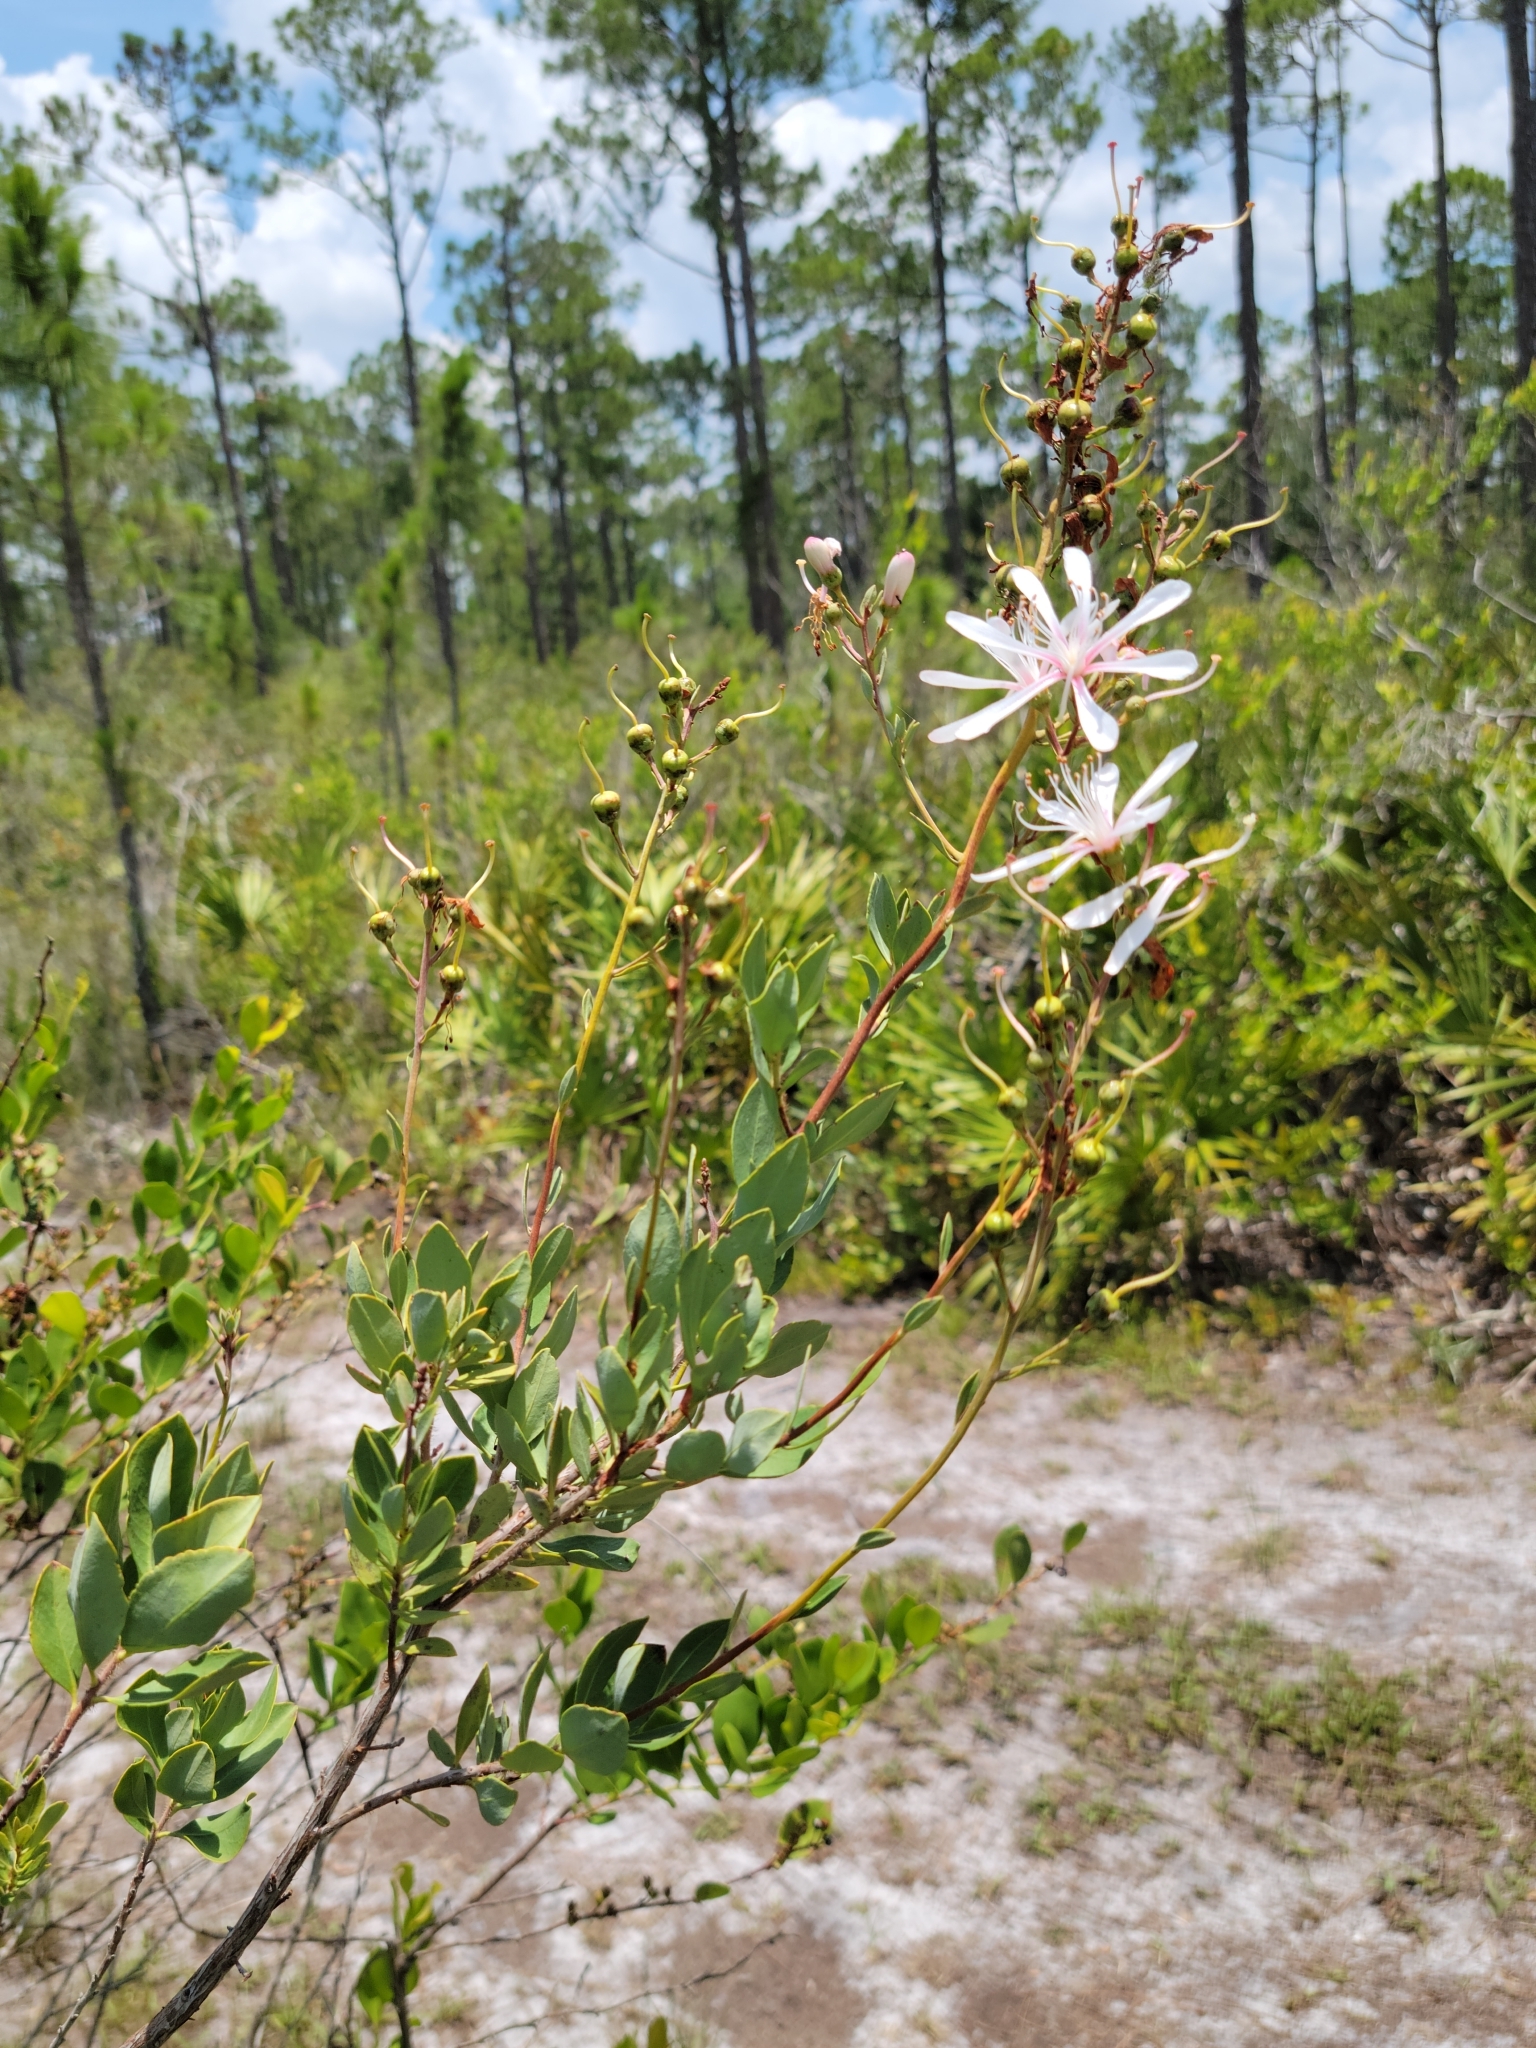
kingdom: Plantae
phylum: Tracheophyta
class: Magnoliopsida
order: Ericales
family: Ericaceae
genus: Bejaria
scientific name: Bejaria racemosa
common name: Tarflower
